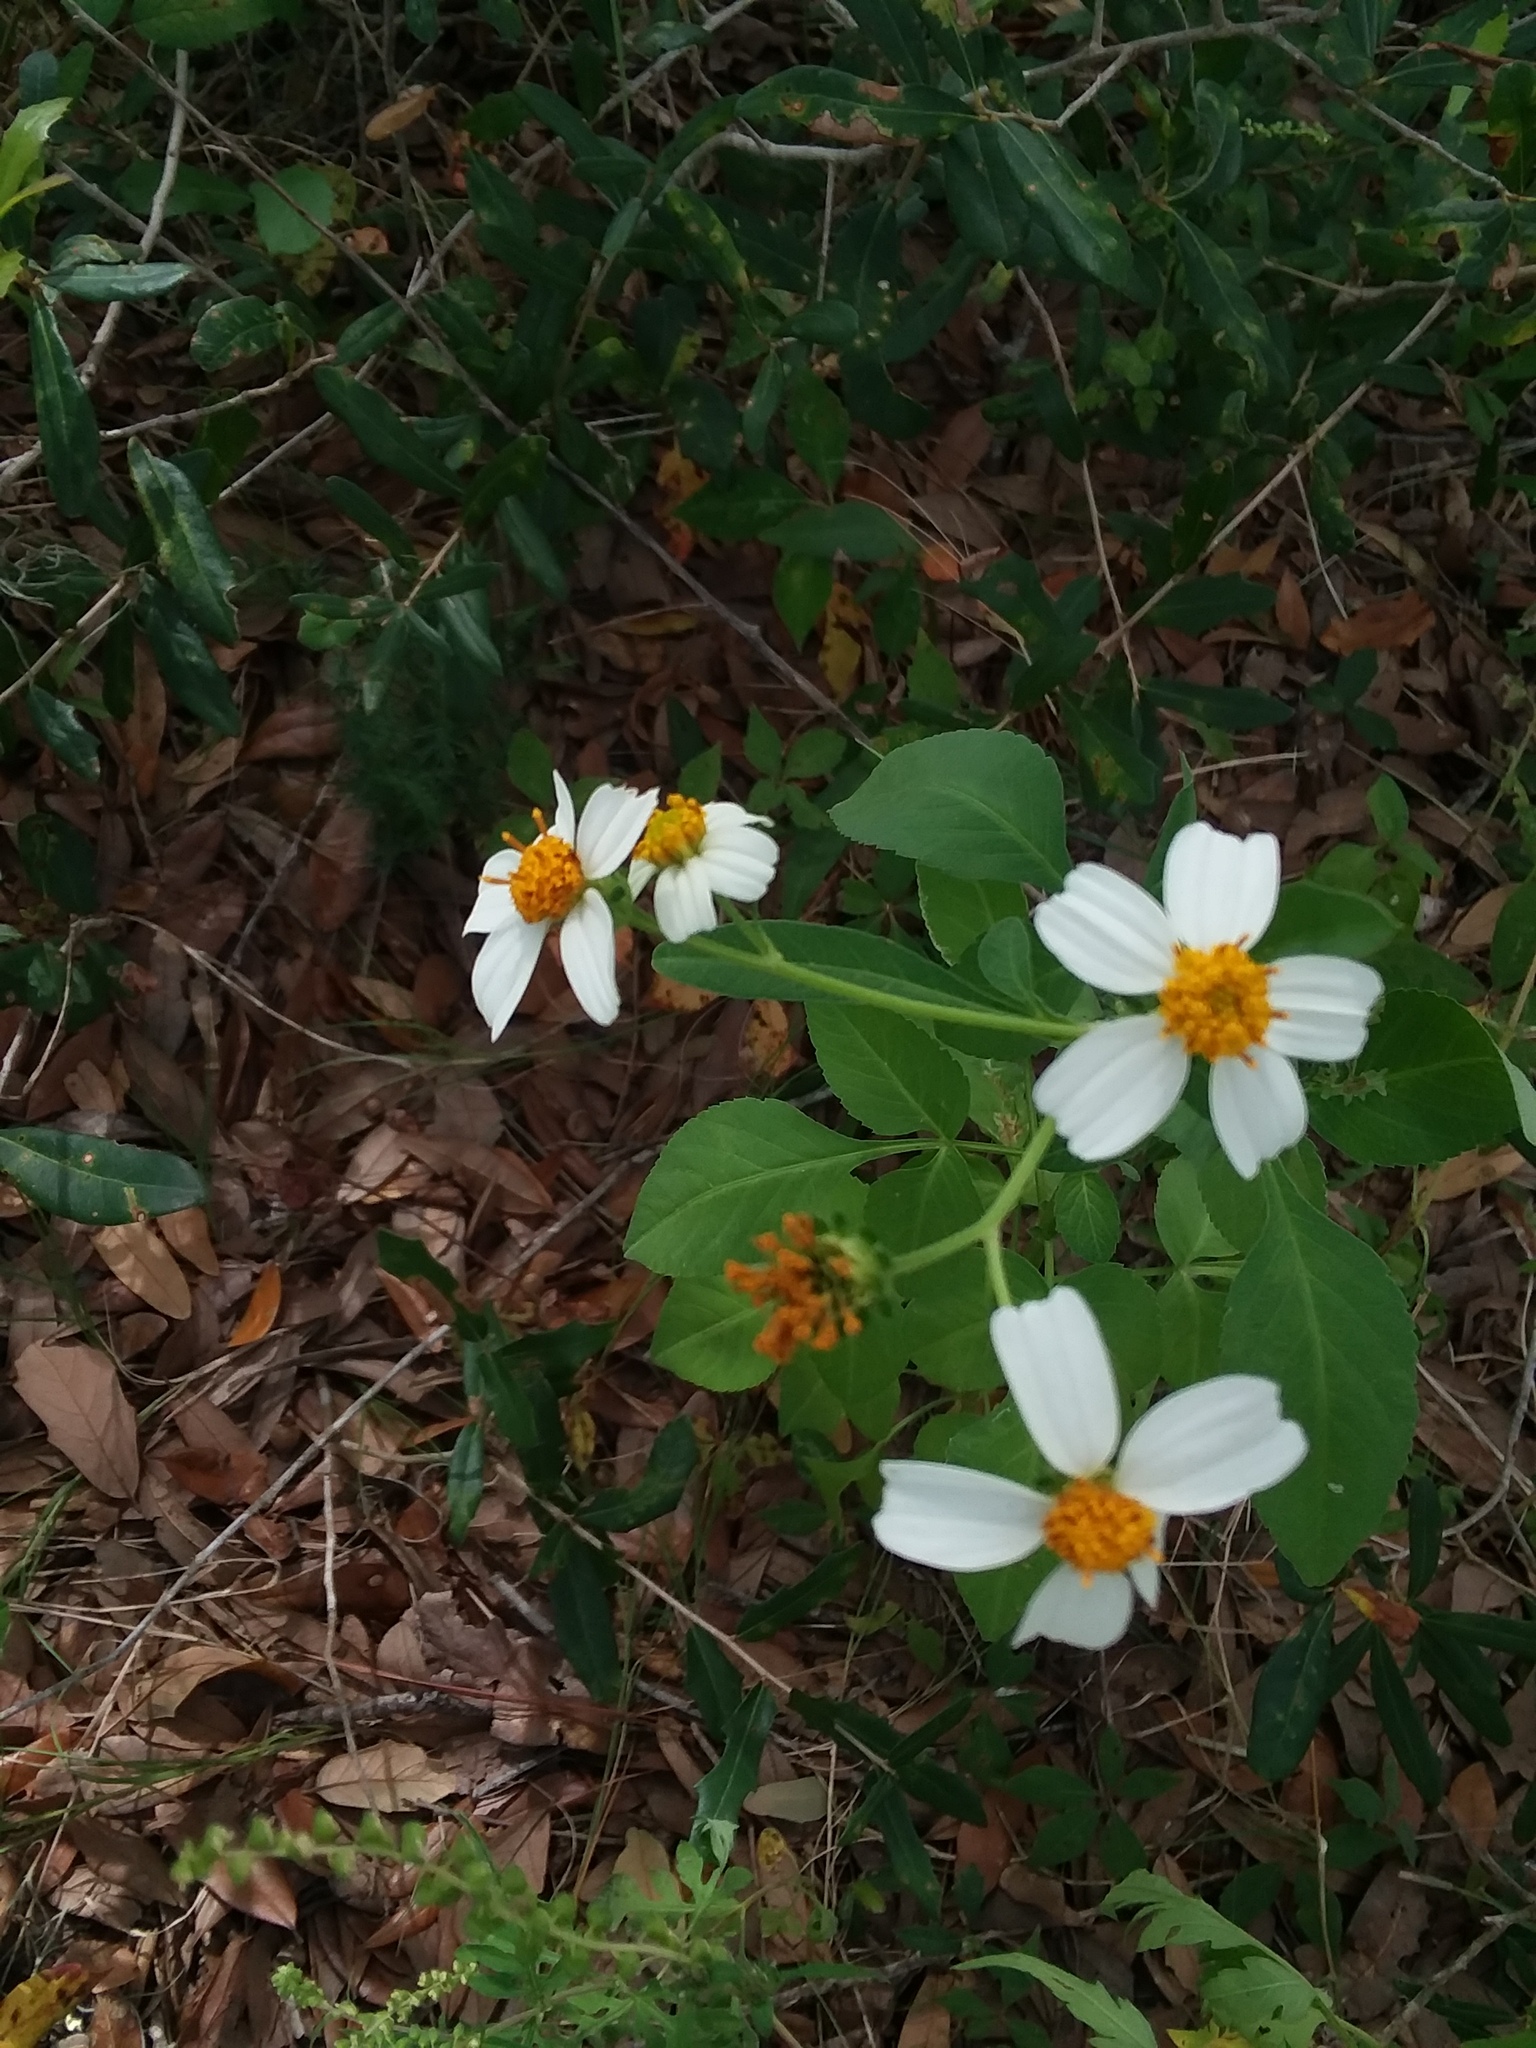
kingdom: Plantae
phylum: Tracheophyta
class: Magnoliopsida
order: Asterales
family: Asteraceae
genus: Bidens
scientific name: Bidens alba
